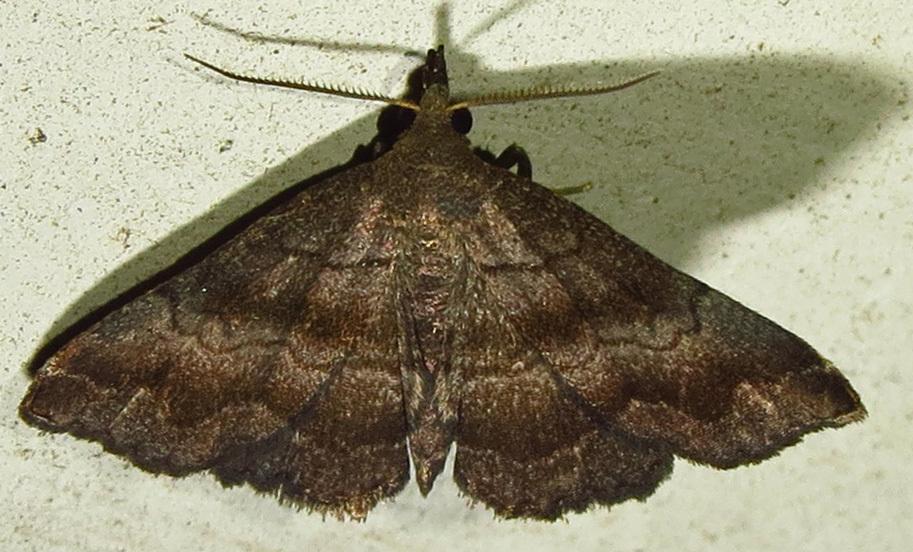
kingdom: Animalia
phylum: Arthropoda
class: Insecta
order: Lepidoptera
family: Erebidae
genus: Phalaenostola
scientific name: Phalaenostola larentioides
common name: Black-banded owlet
